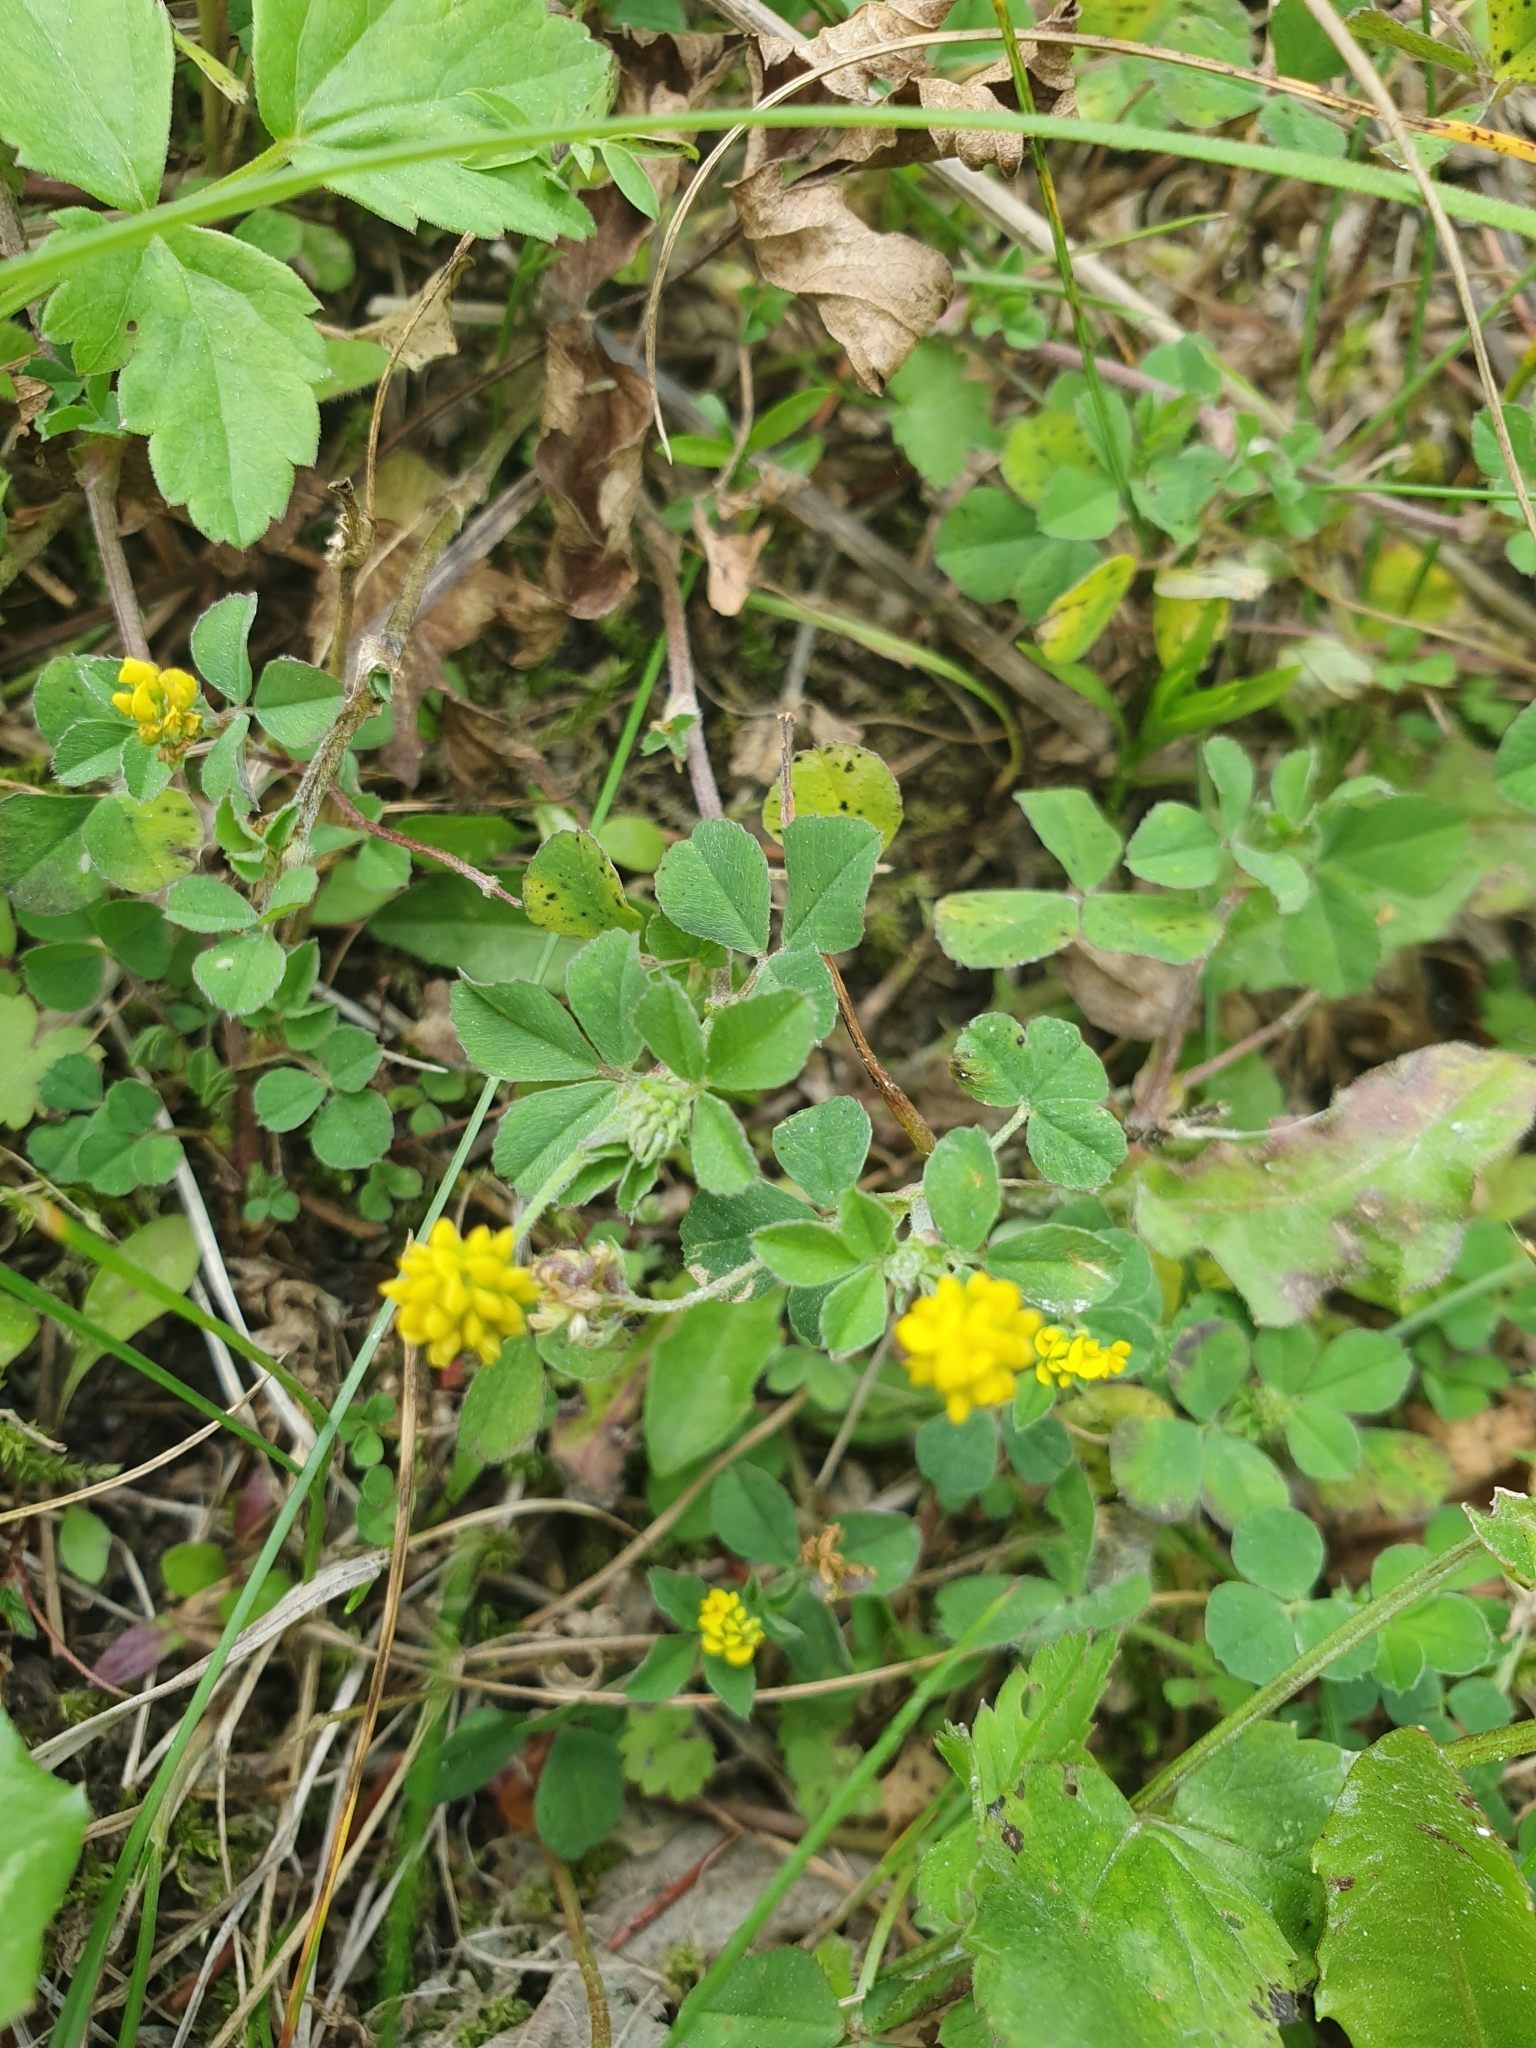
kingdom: Plantae
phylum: Tracheophyta
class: Magnoliopsida
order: Fabales
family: Fabaceae
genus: Medicago
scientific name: Medicago lupulina
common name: Black medick
